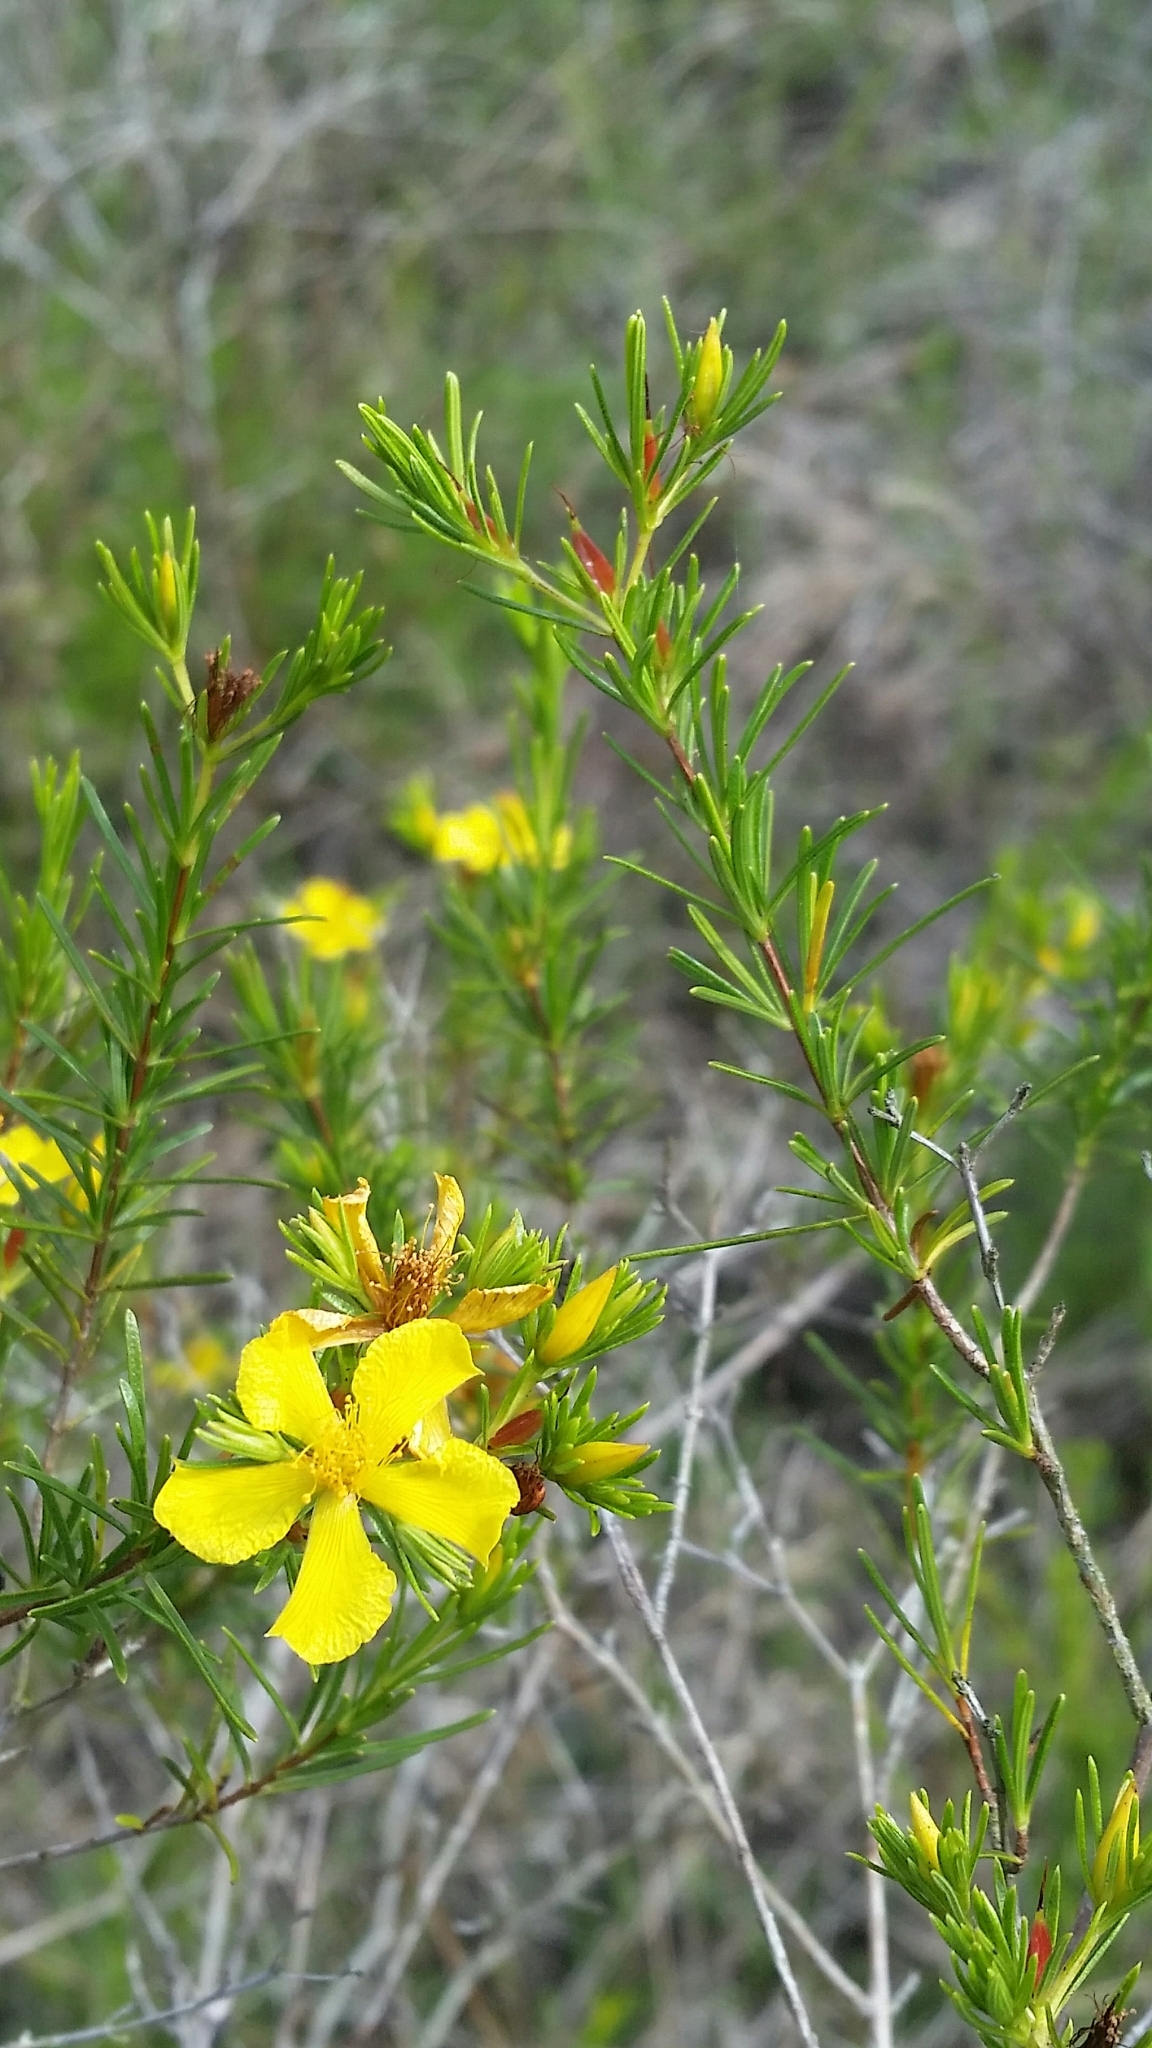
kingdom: Plantae
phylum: Tracheophyta
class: Magnoliopsida
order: Malpighiales
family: Hypericaceae
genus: Hypericum
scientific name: Hypericum fasciculatum
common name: Peelbark st. john's wort
